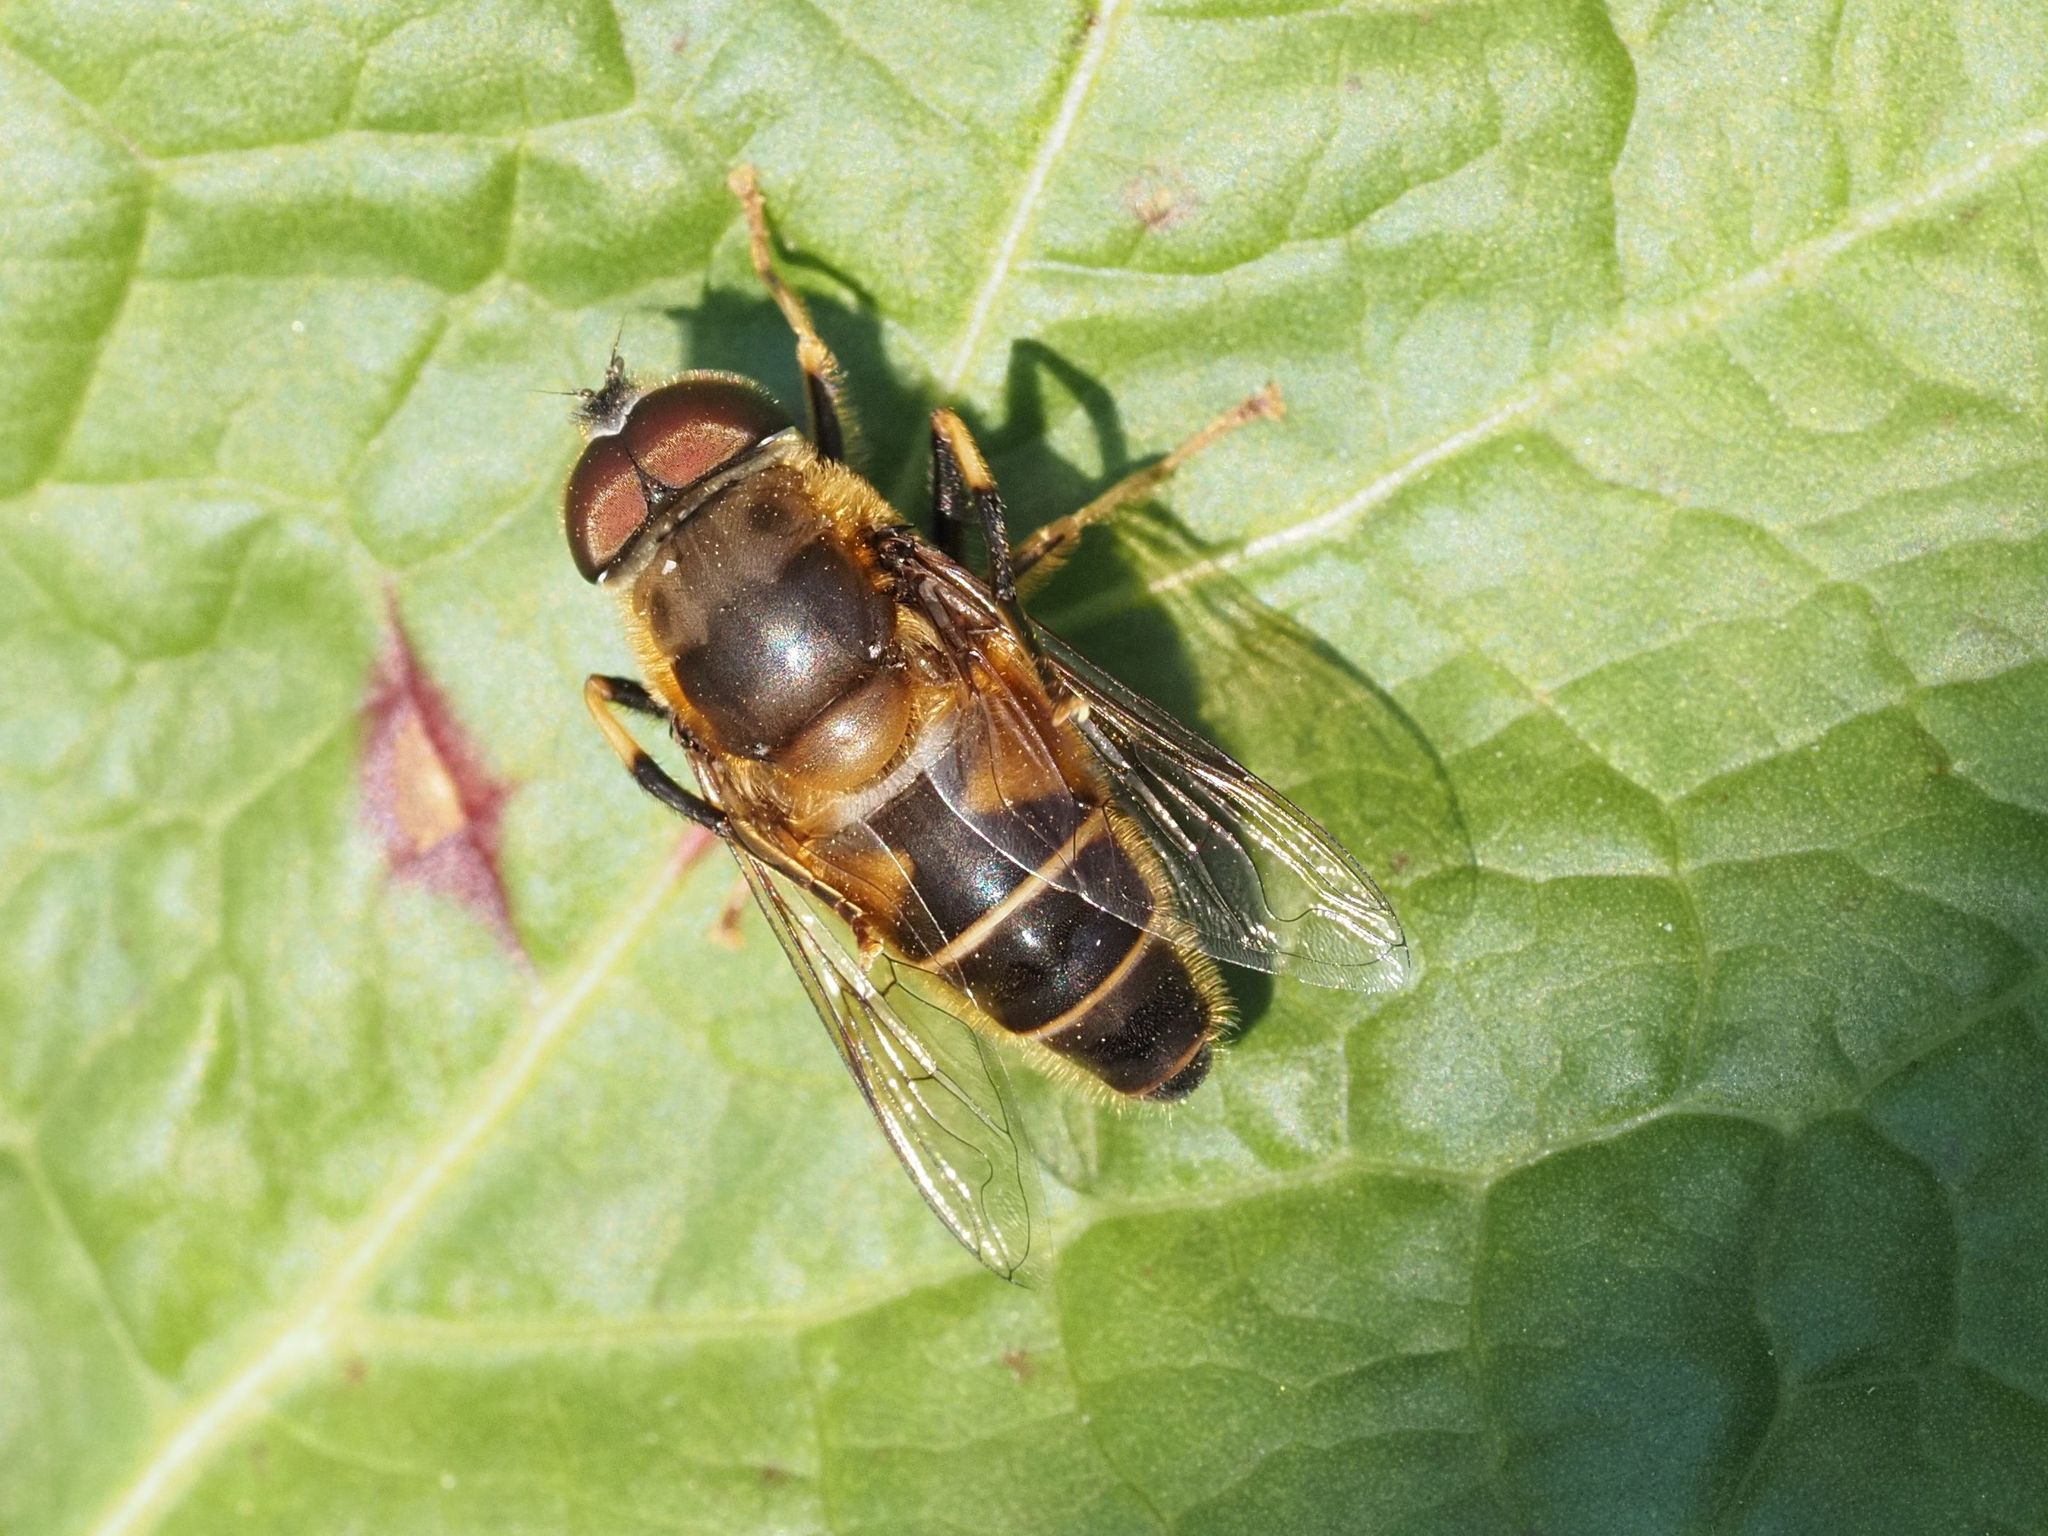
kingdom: Animalia
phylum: Arthropoda
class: Insecta
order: Diptera
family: Syrphidae
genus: Eristalis
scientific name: Eristalis pertinax
